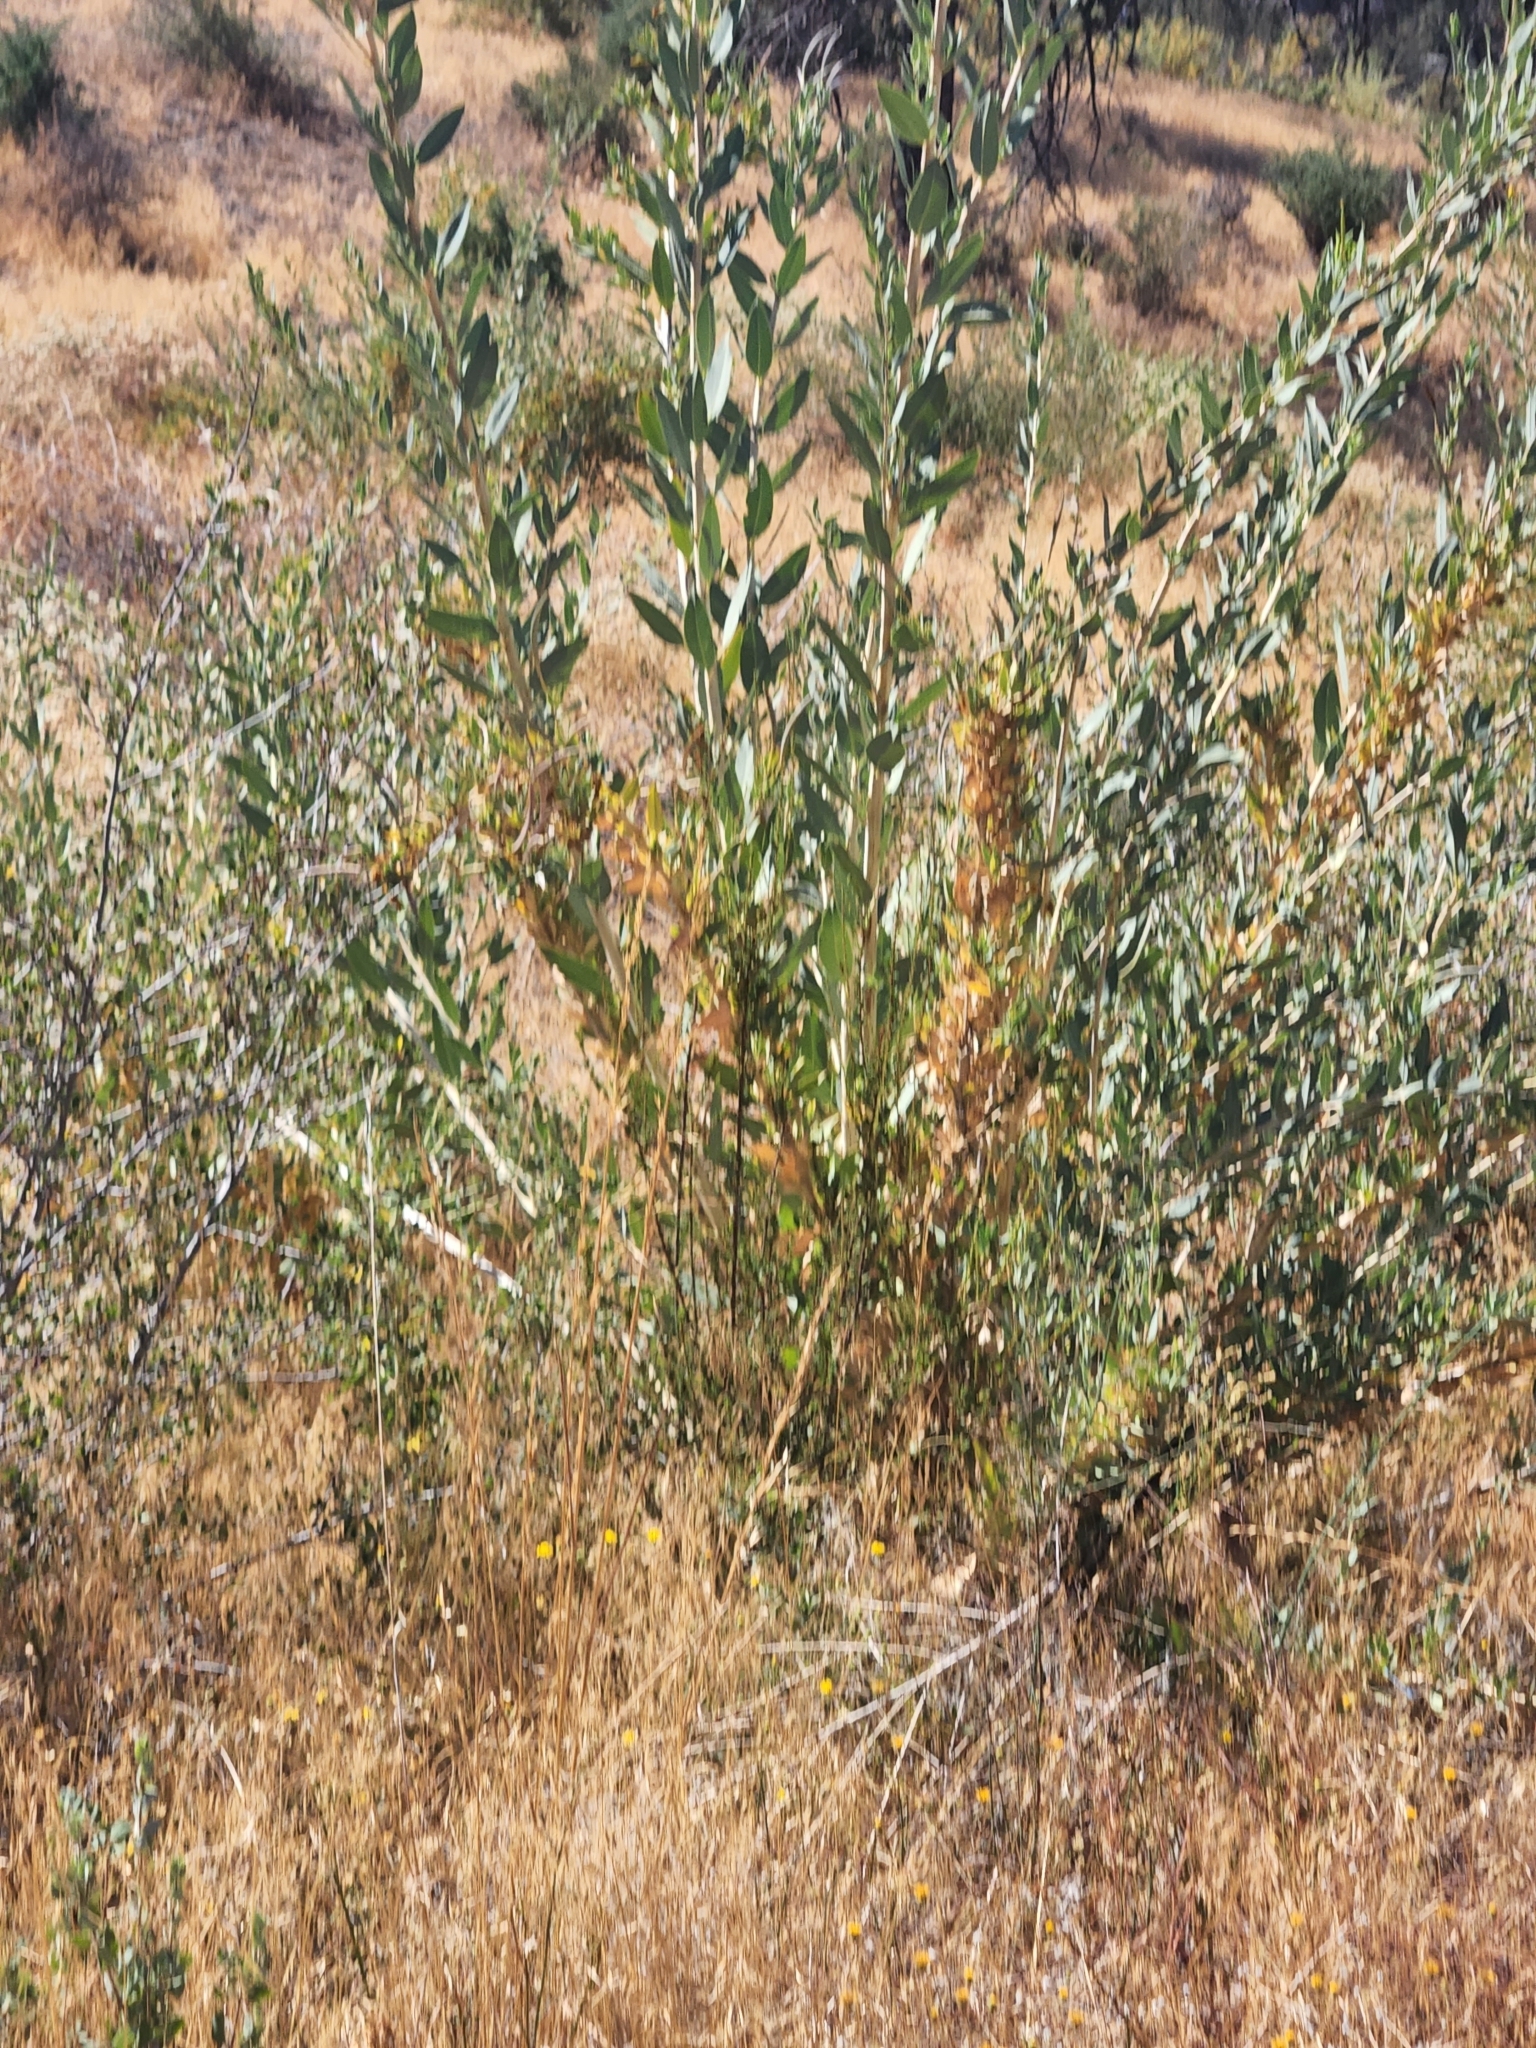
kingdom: Plantae
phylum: Tracheophyta
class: Magnoliopsida
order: Ranunculales
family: Papaveraceae
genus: Dendromecon
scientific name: Dendromecon rigida
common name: Tree poppy
